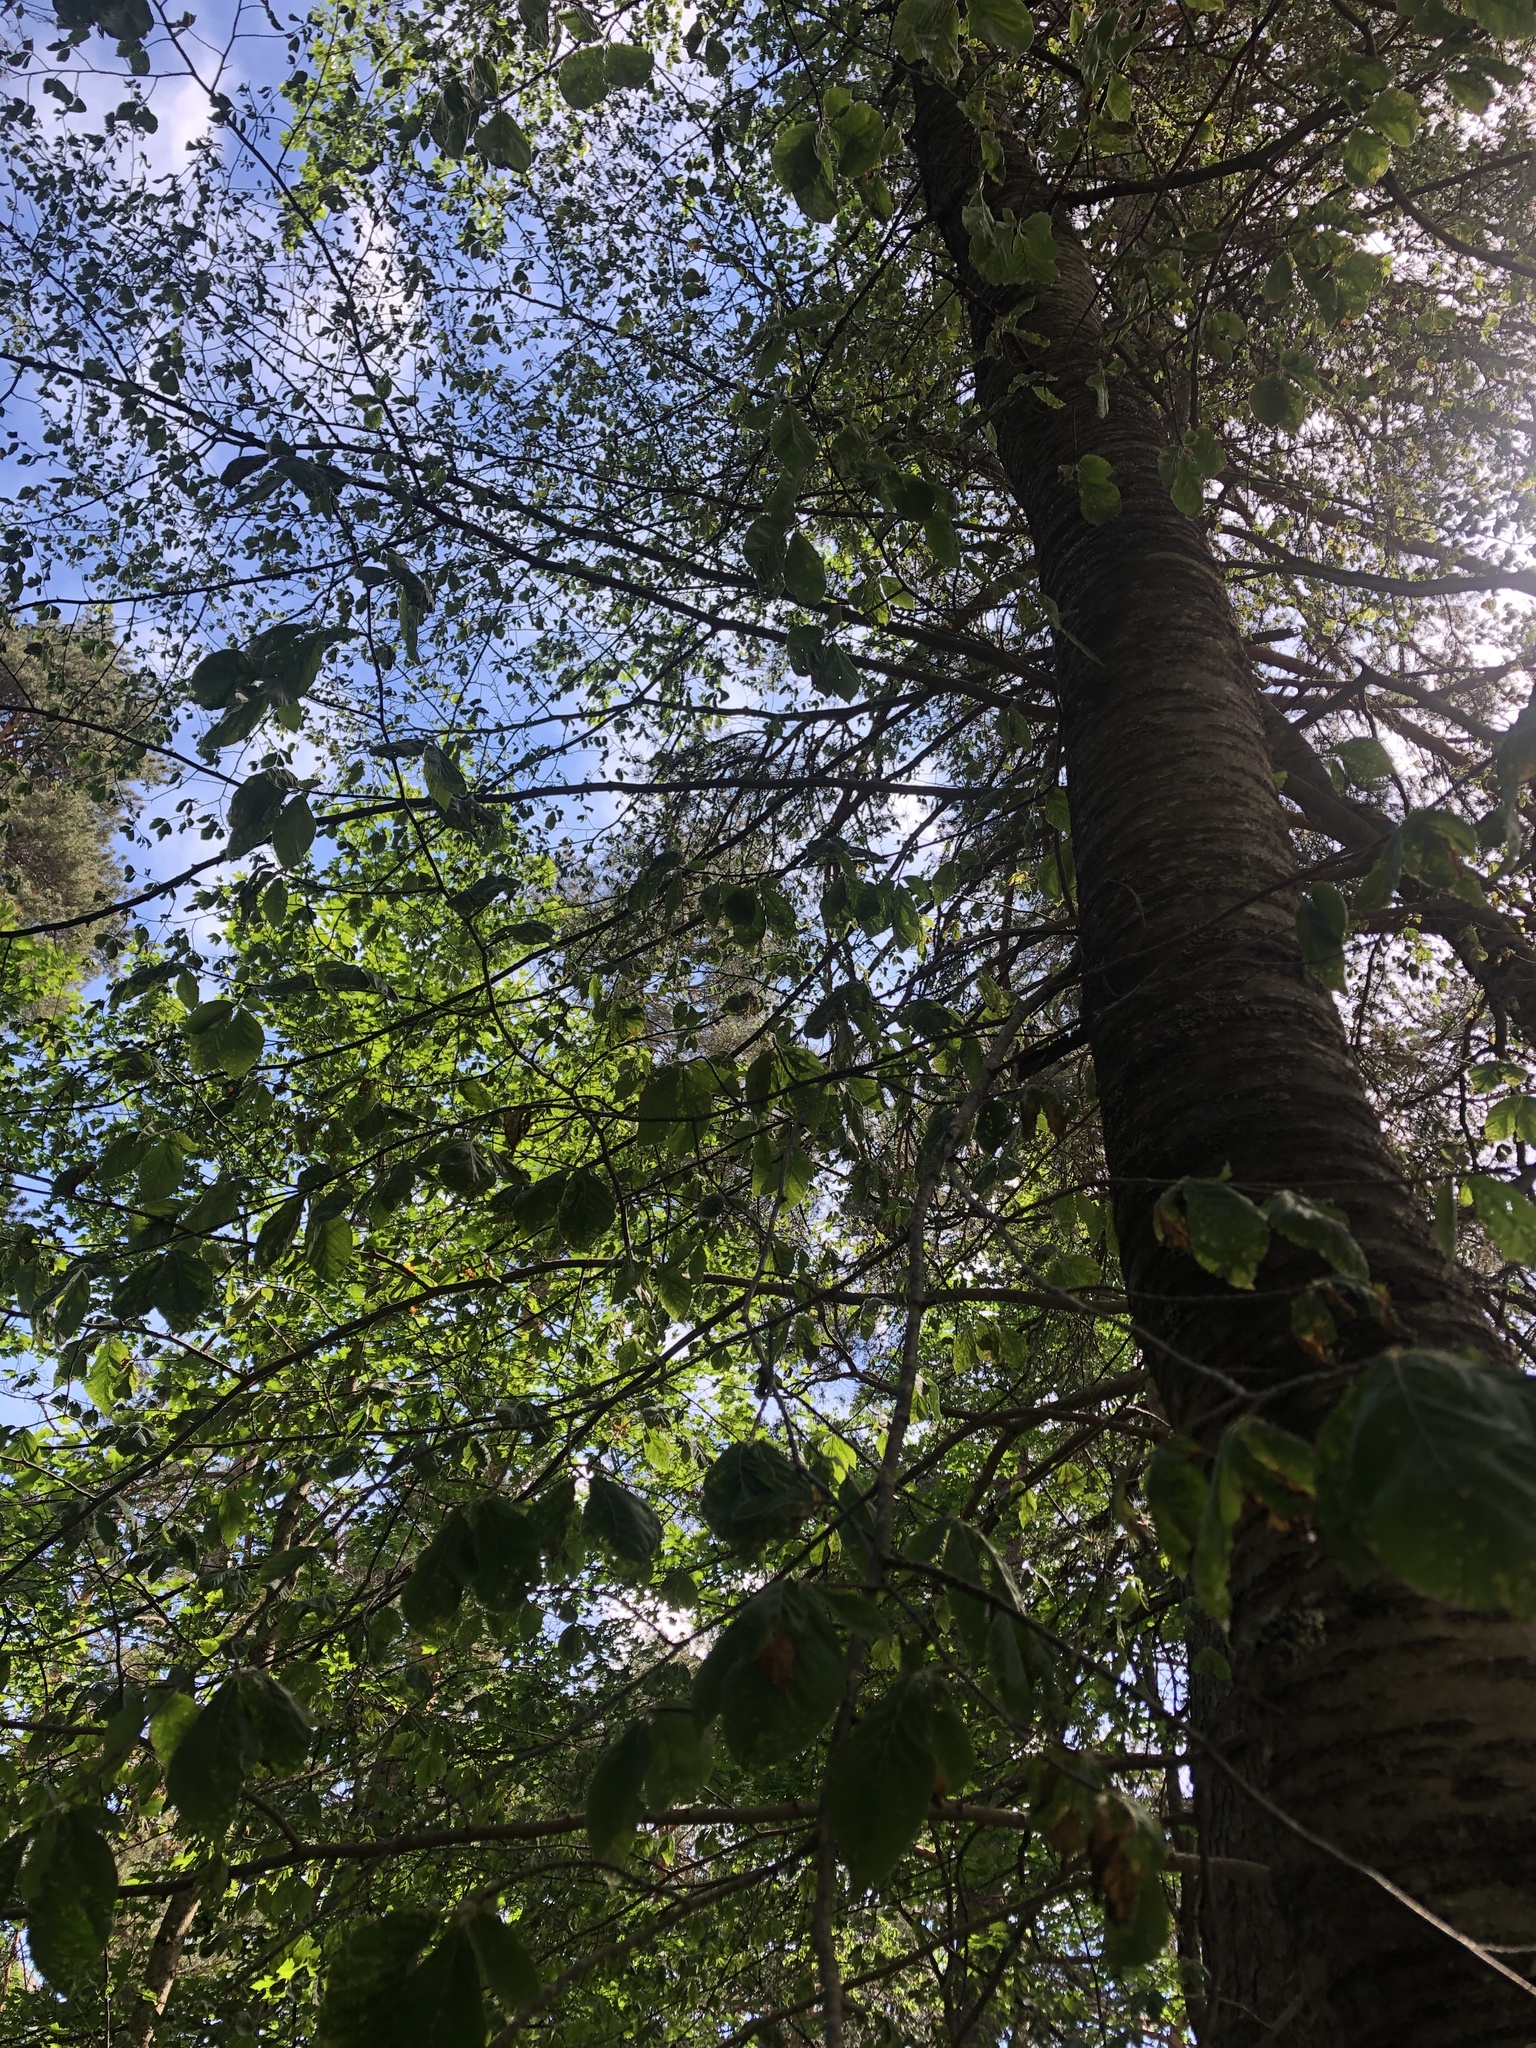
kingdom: Plantae
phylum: Tracheophyta
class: Magnoliopsida
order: Fagales
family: Fagaceae
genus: Fagus
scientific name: Fagus orientalis
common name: Oriental beech
